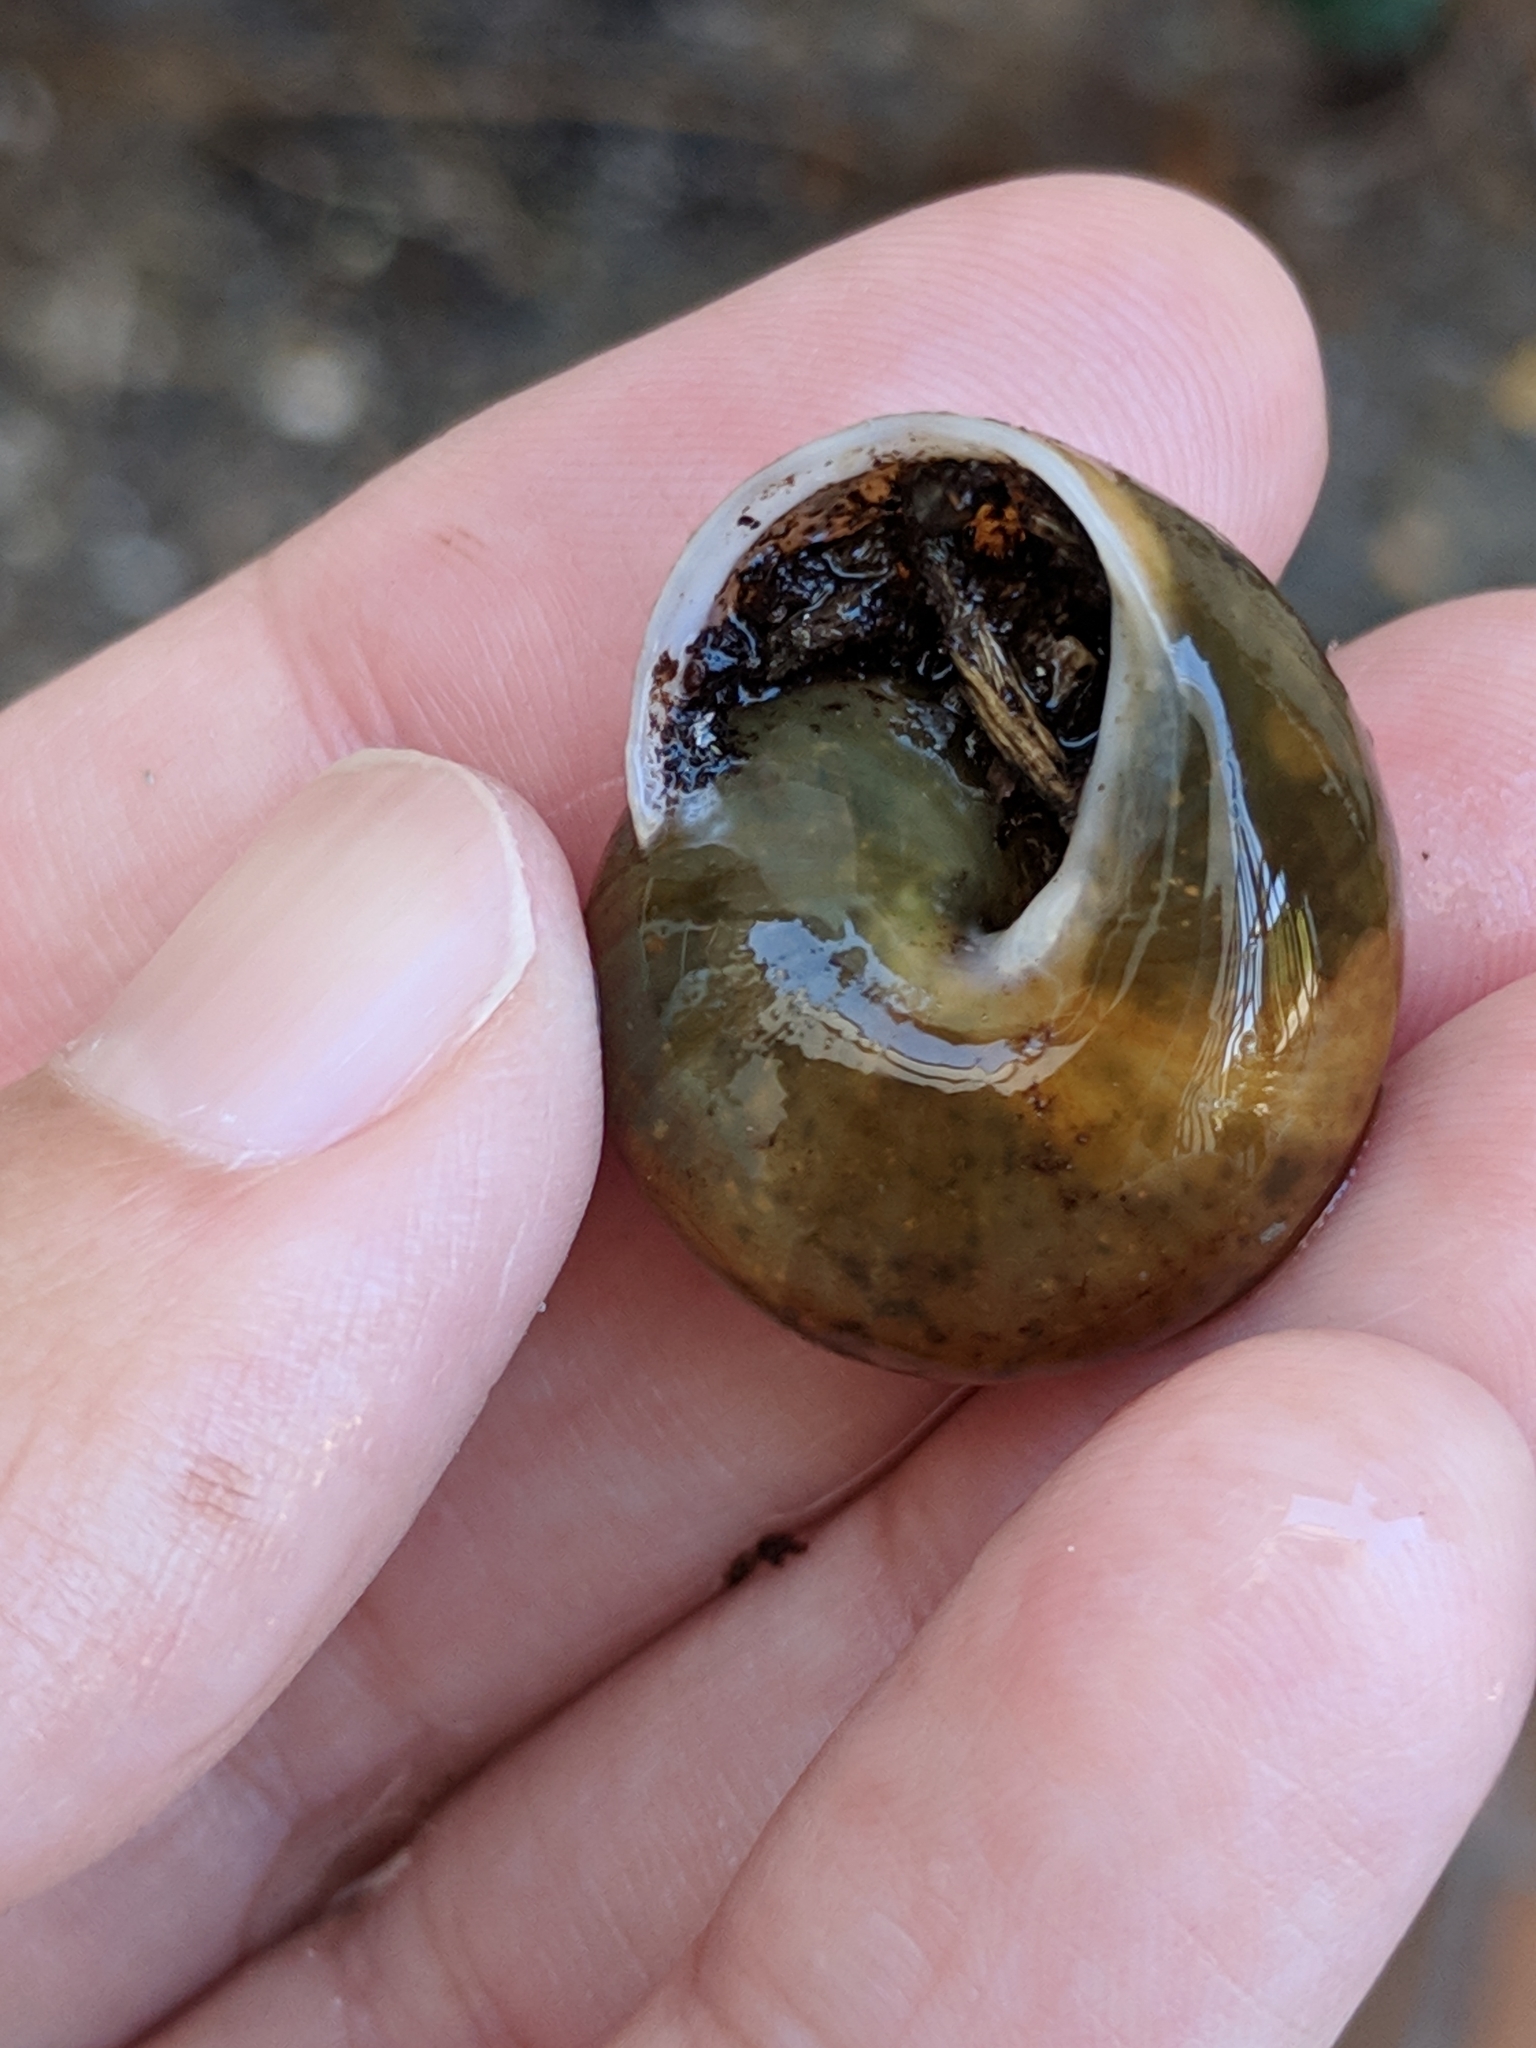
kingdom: Animalia
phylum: Mollusca
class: Gastropoda
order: Stylommatophora
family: Zachrysiidae
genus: Zachrysia
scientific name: Zachrysia provisoria
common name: Garden zachrysia
